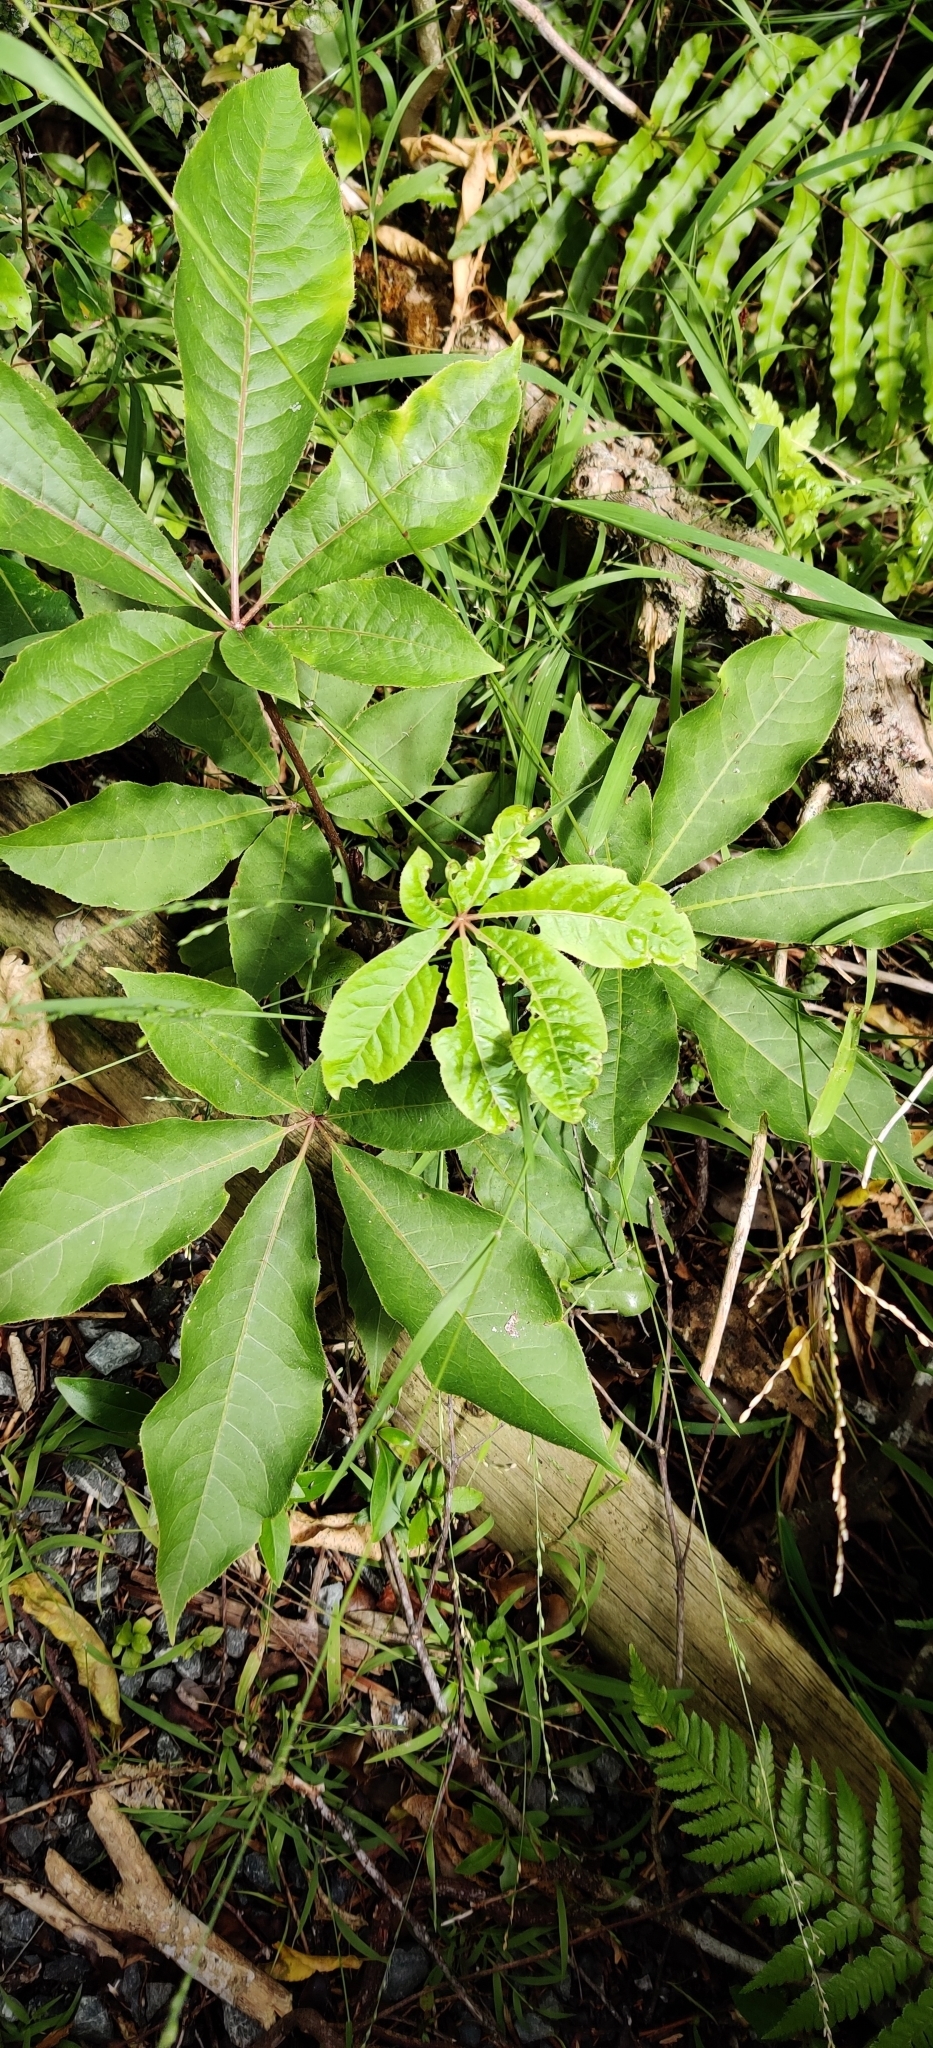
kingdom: Plantae
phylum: Tracheophyta
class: Magnoliopsida
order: Apiales
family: Araliaceae
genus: Schefflera
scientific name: Schefflera digitata
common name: Pate
